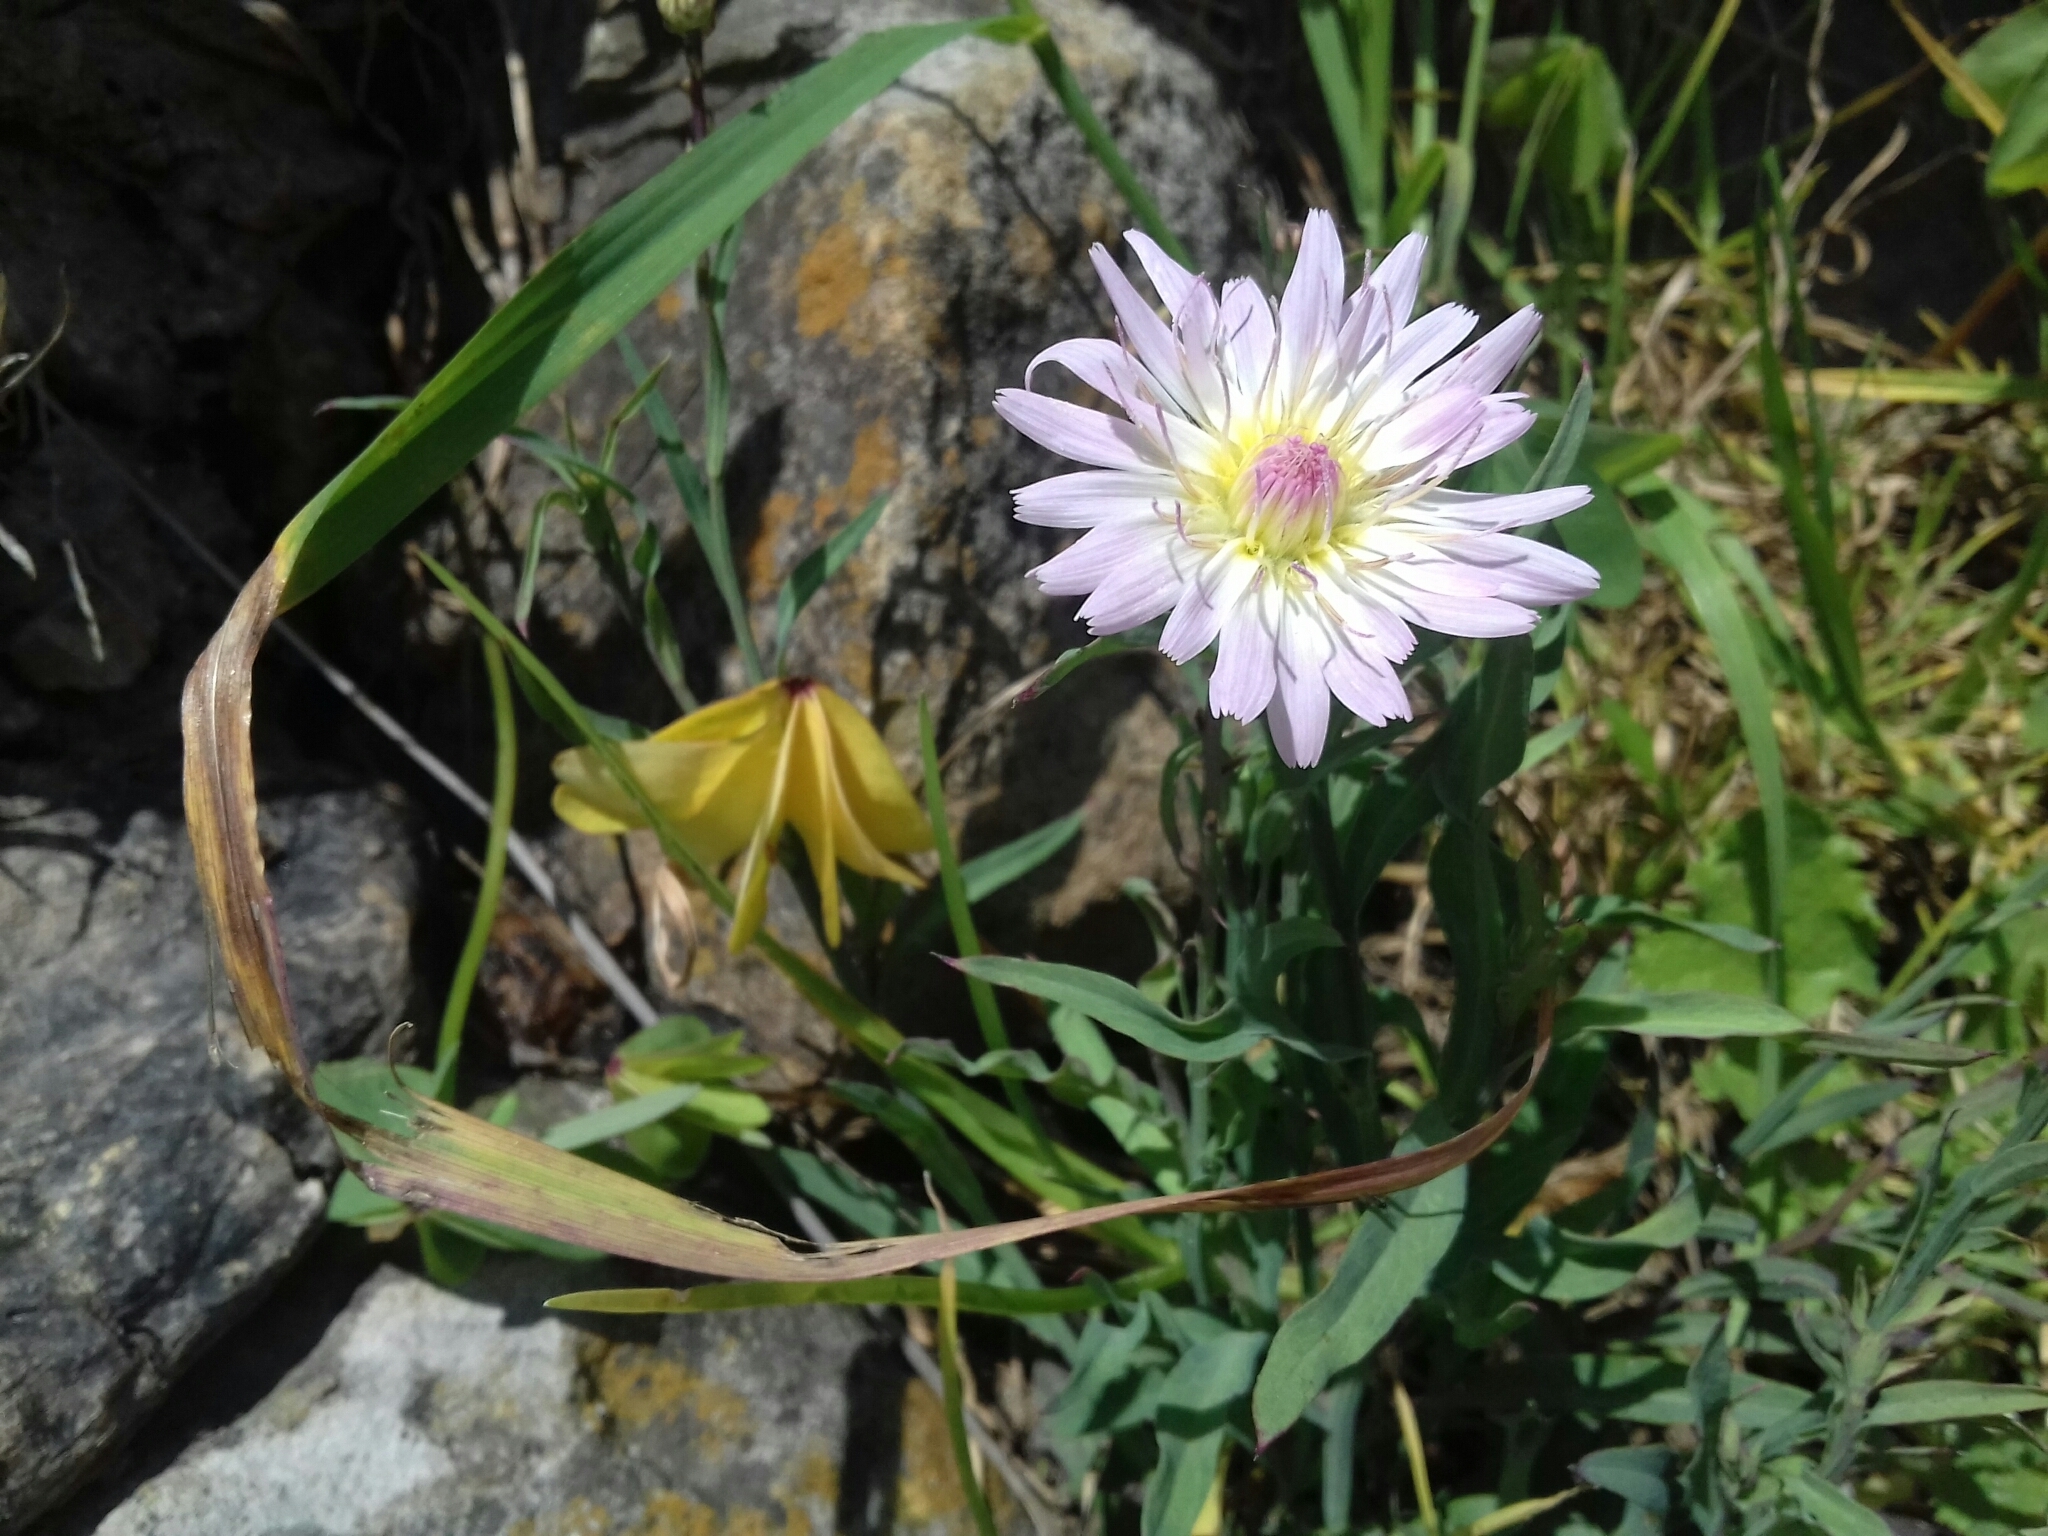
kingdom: Plantae
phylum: Tracheophyta
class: Magnoliopsida
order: Asterales
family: Asteraceae
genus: Pinaropappus
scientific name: Pinaropappus roseus
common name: Rock-lettuce
